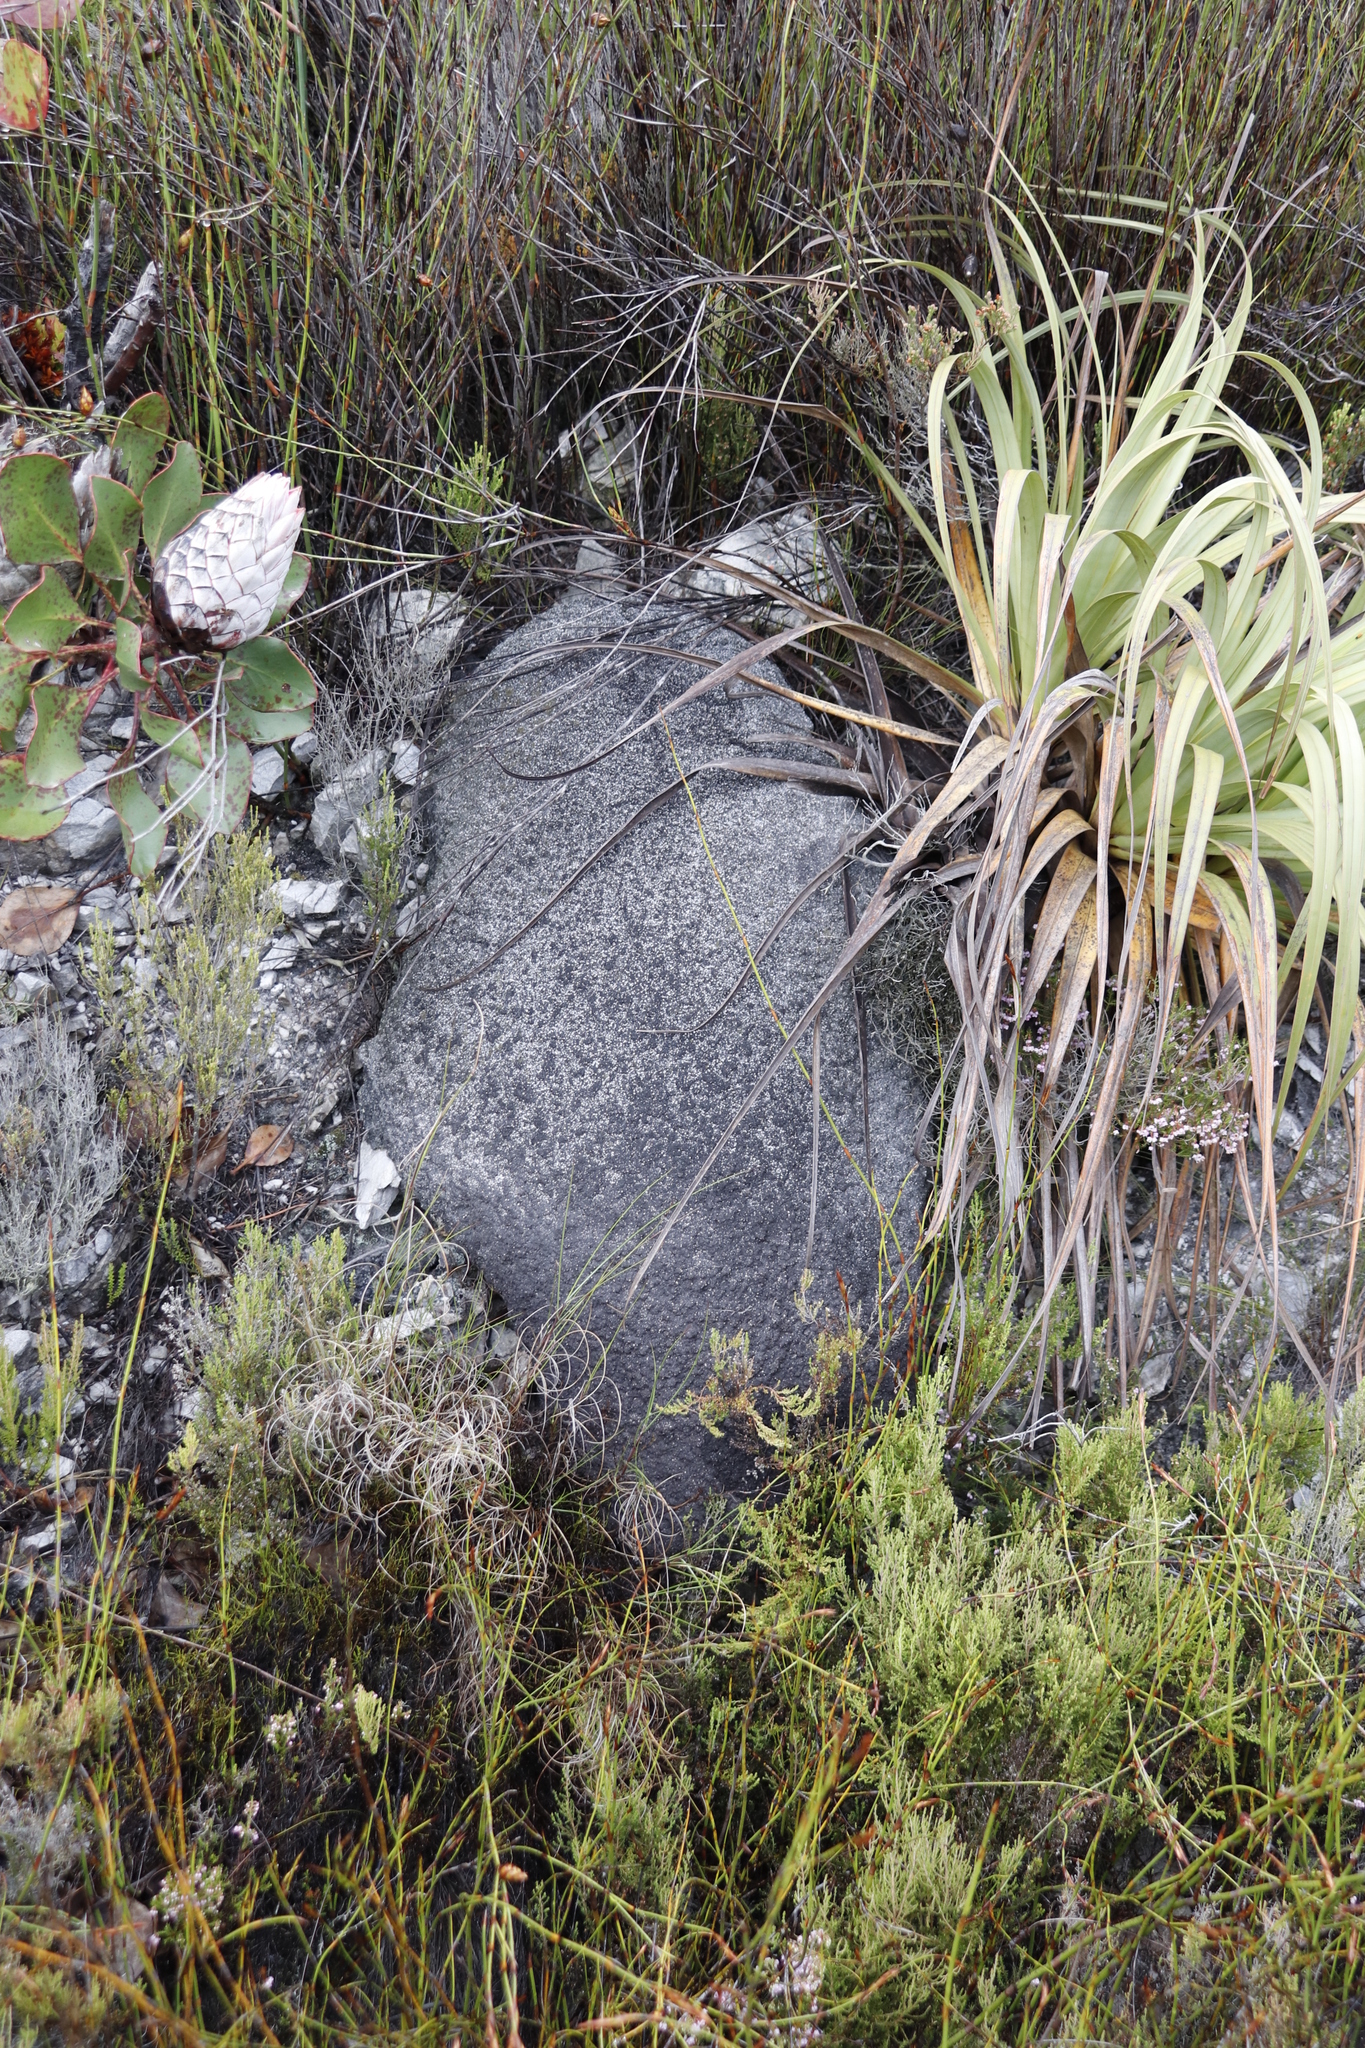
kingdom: Animalia
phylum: Arthropoda
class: Insecta
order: Blattodea
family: Termitidae
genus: Amitermes
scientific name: Amitermes hastatus
